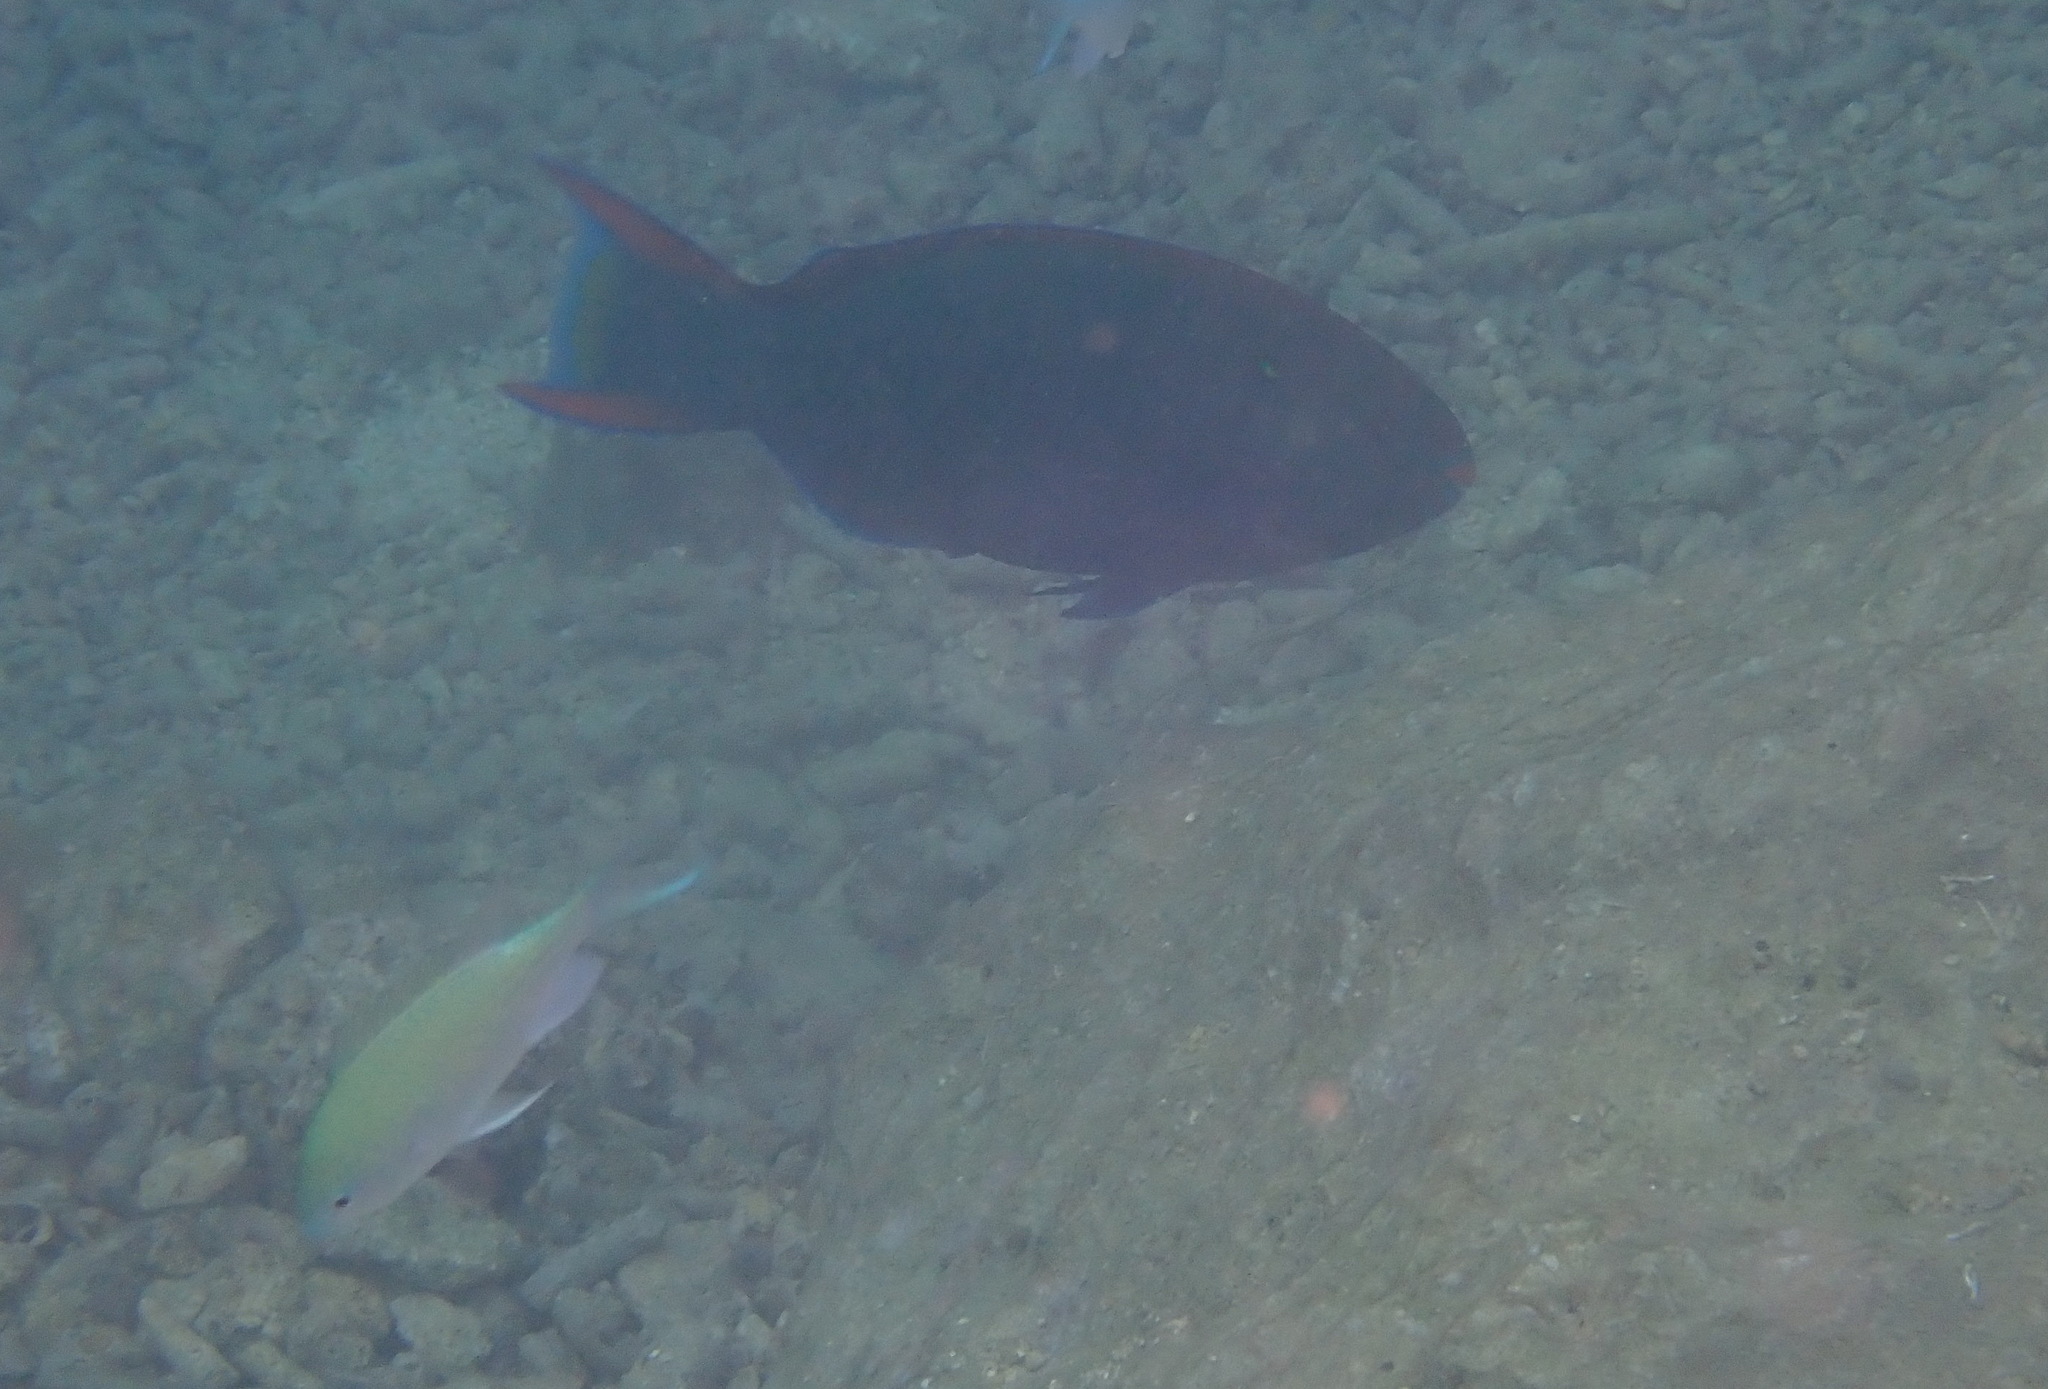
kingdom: Animalia
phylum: Chordata
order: Perciformes
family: Scaridae
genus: Scarus
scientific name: Scarus niger
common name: Dusky parrotfish
